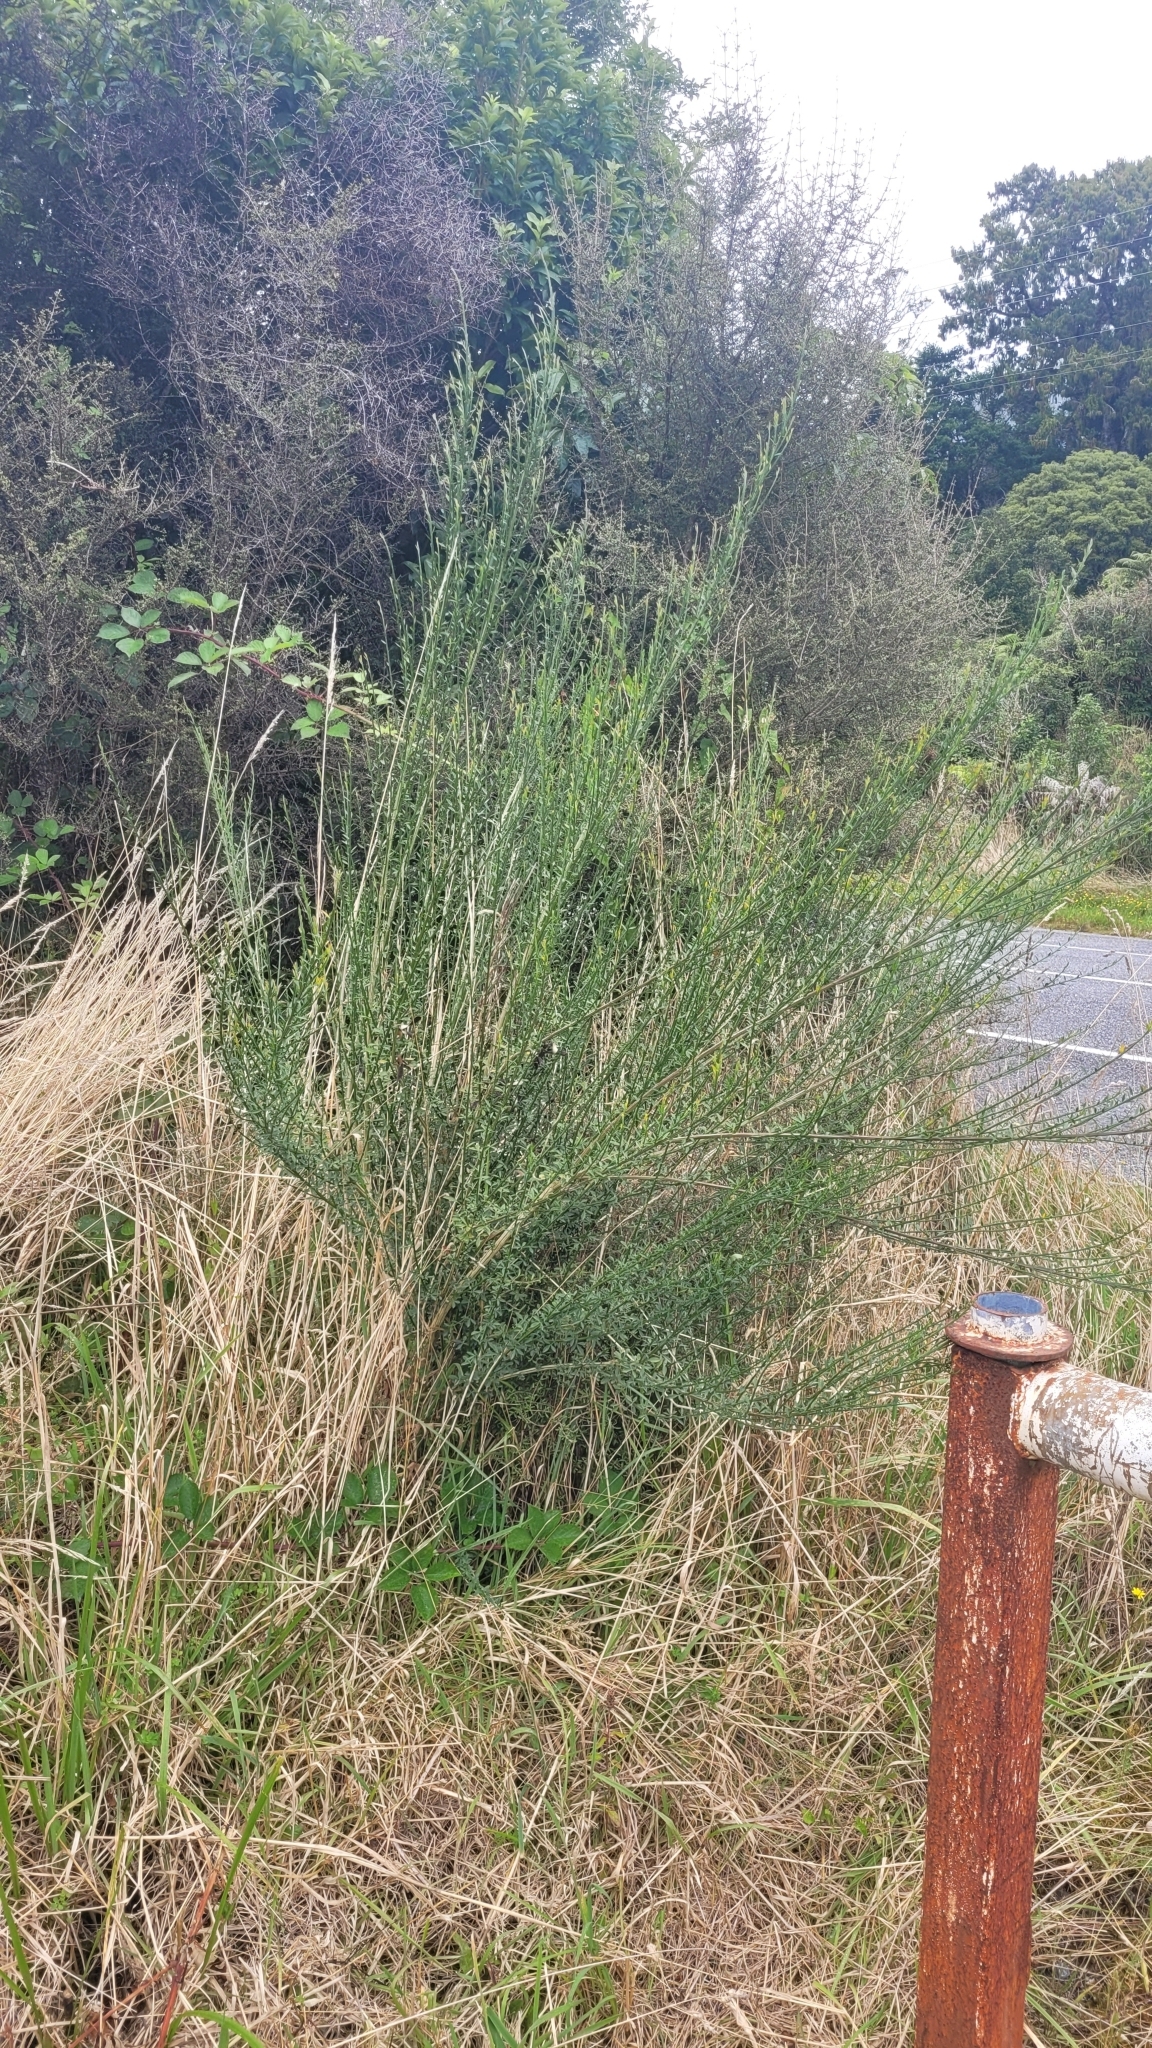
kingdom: Plantae
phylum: Tracheophyta
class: Magnoliopsida
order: Fabales
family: Fabaceae
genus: Cytisus
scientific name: Cytisus scoparius
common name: Scotch broom
